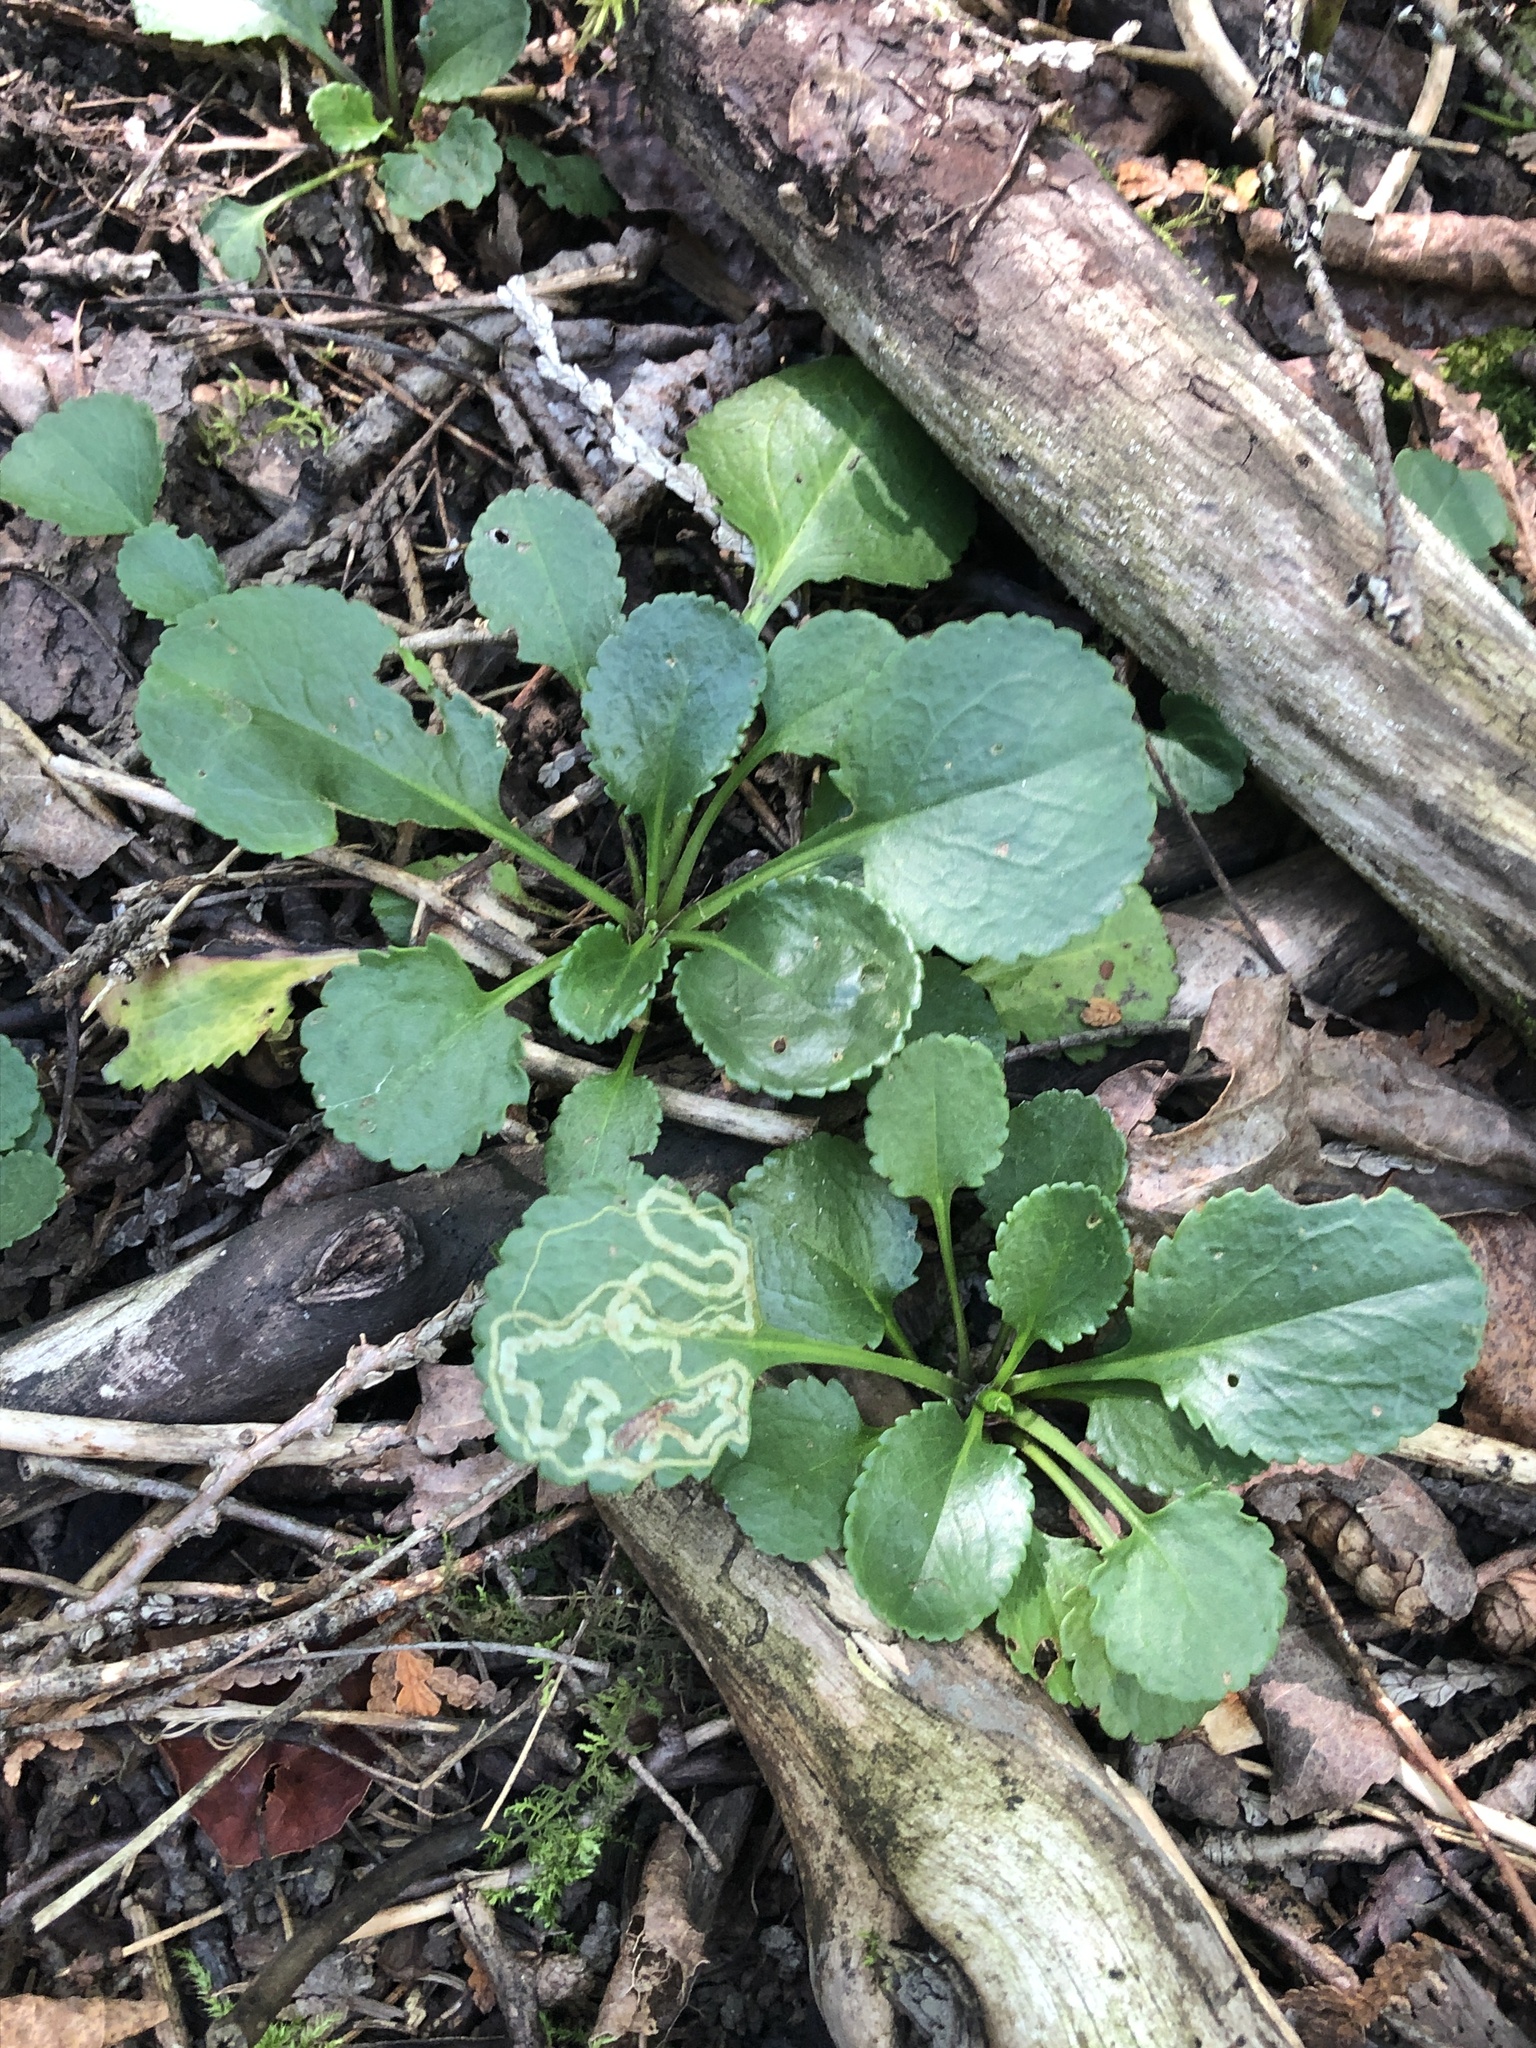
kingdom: Plantae
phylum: Tracheophyta
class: Magnoliopsida
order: Asterales
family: Asteraceae
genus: Packera
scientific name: Packera obovata
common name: Round-leaf ragwort
